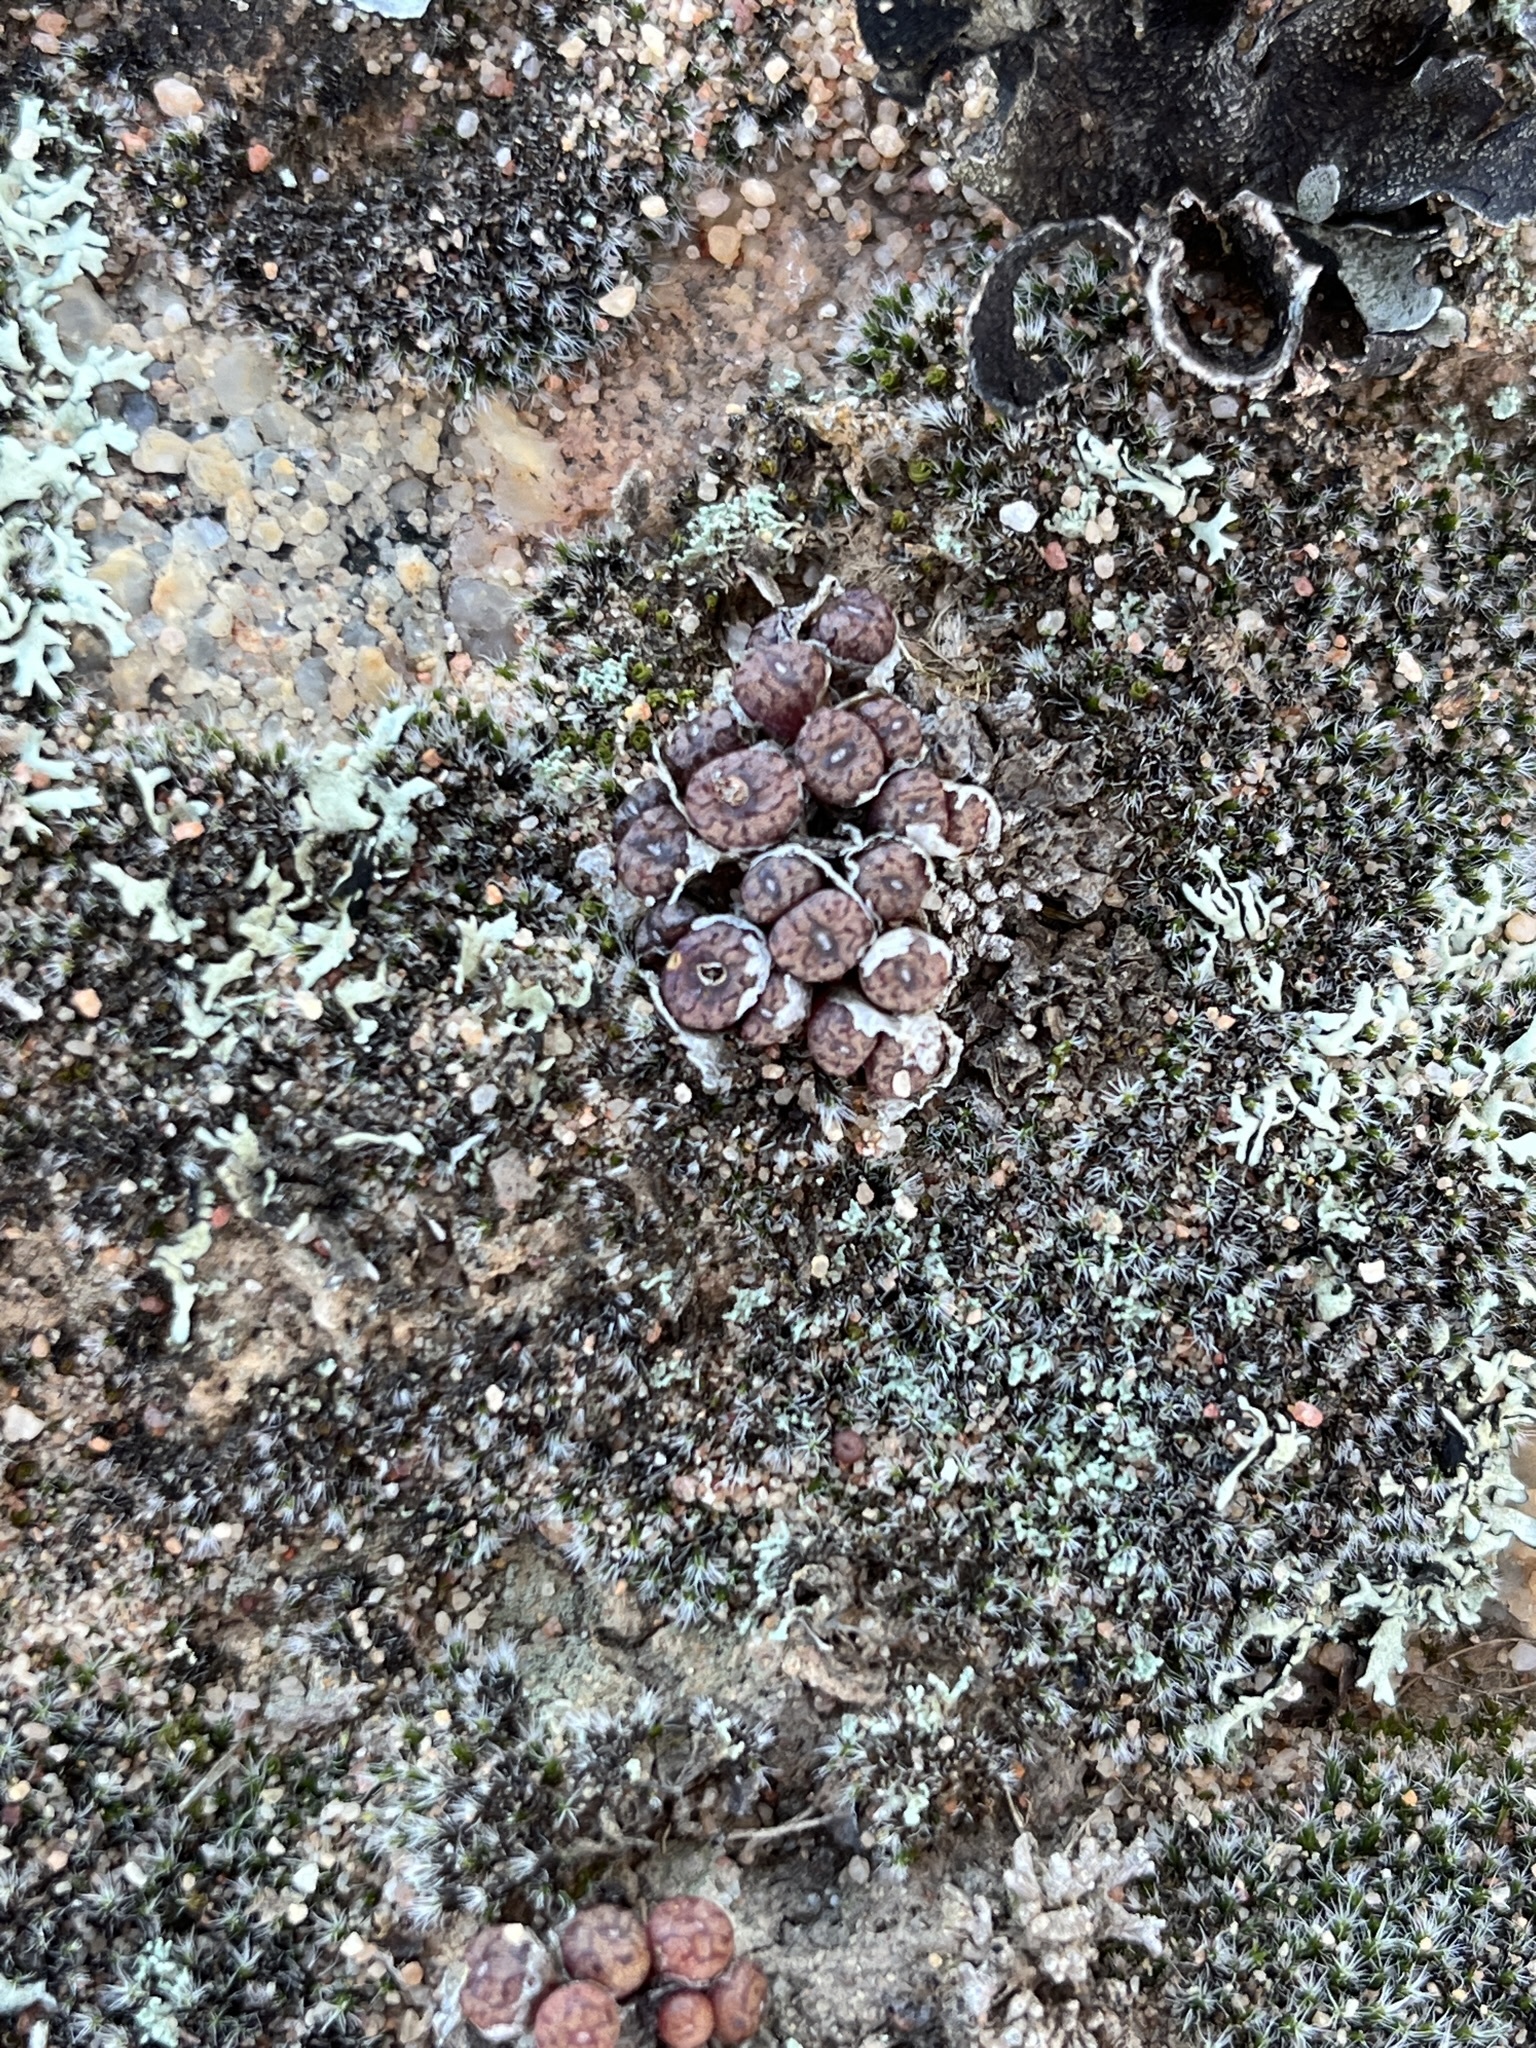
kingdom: Plantae
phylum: Tracheophyta
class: Magnoliopsida
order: Caryophyllales
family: Aizoaceae
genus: Conophytum
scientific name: Conophytum swanepoelianum
